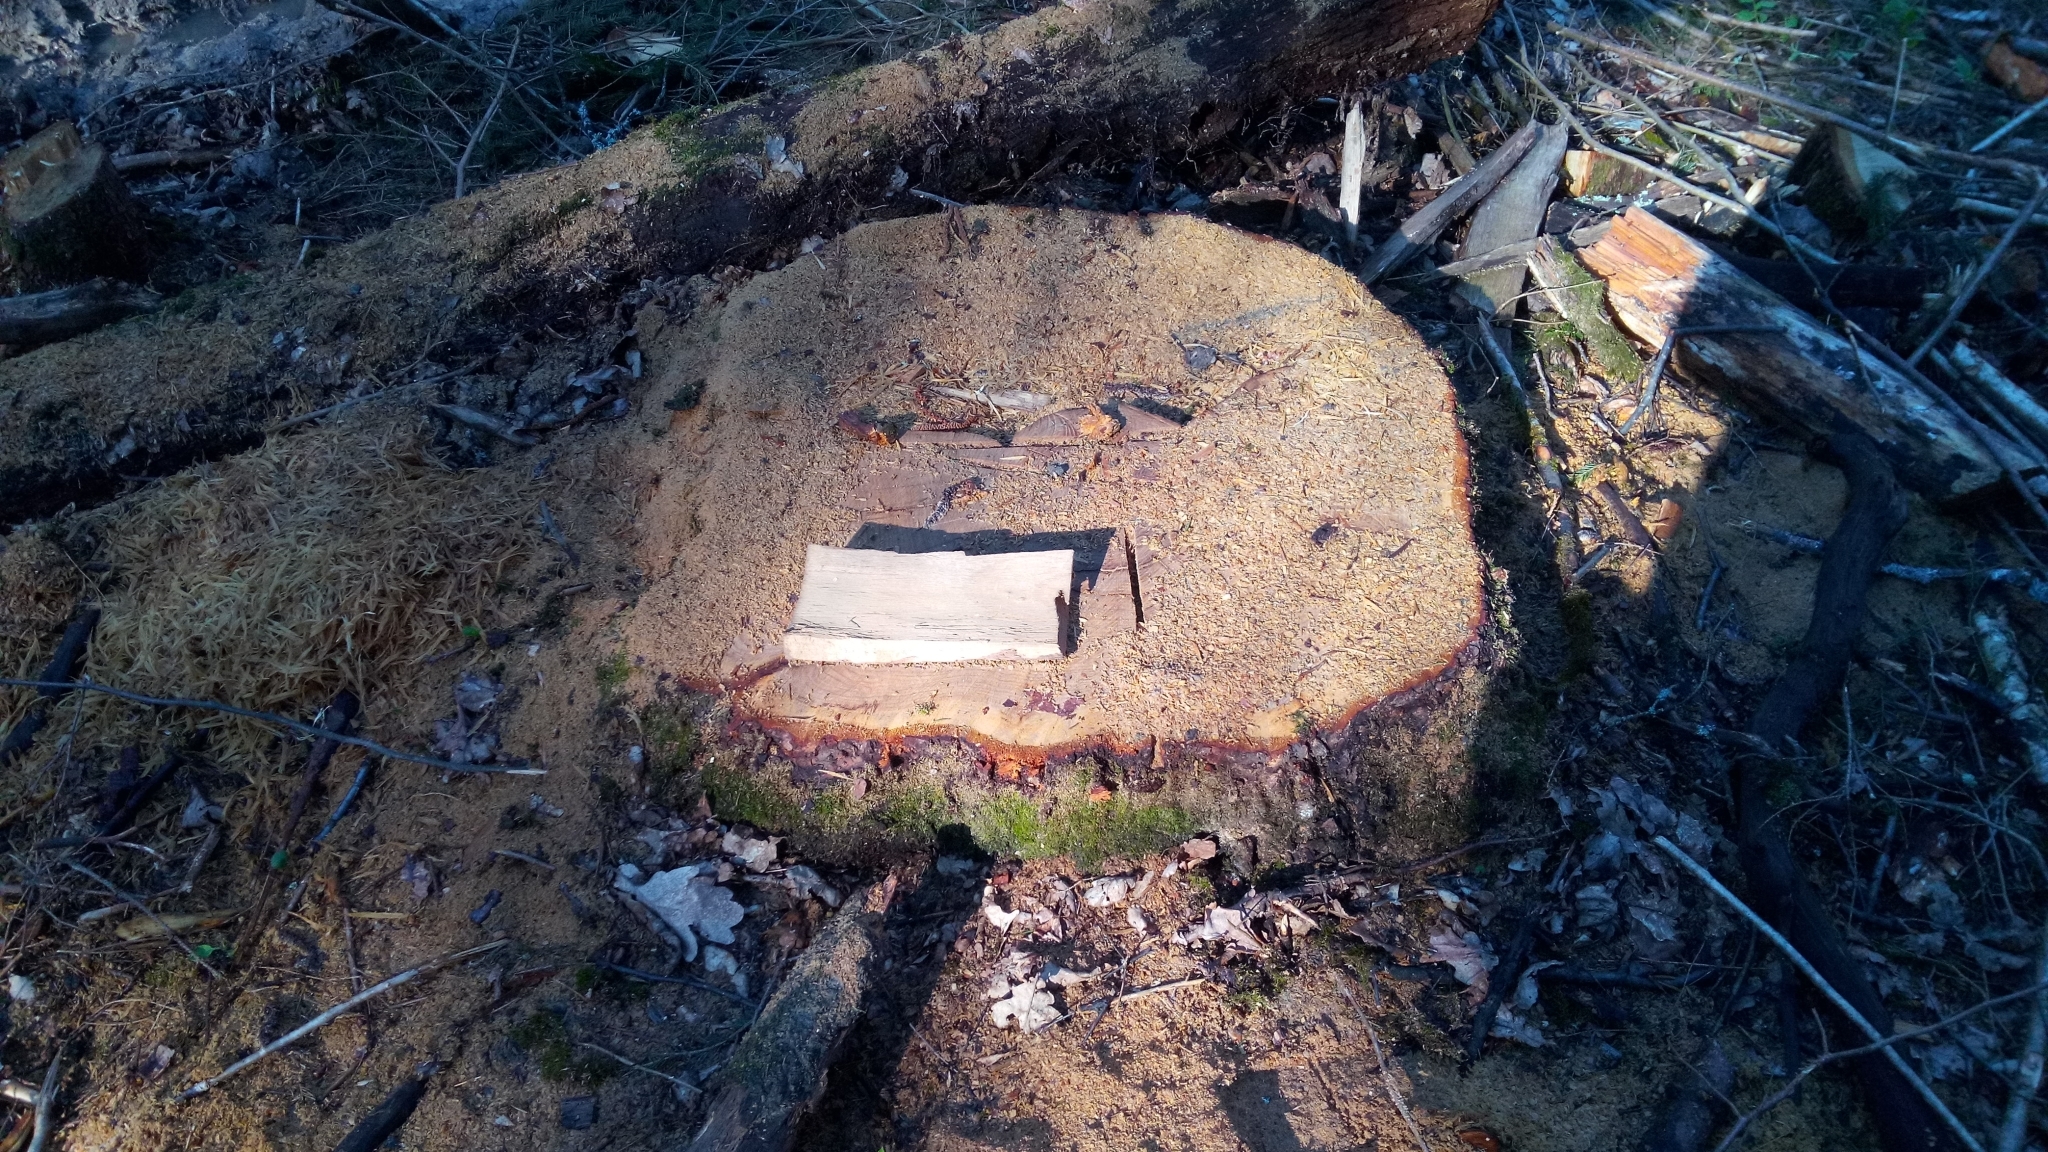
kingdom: Plantae
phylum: Tracheophyta
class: Pinopsida
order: Pinales
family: Pinaceae
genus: Picea
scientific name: Picea abies
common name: Norway spruce
